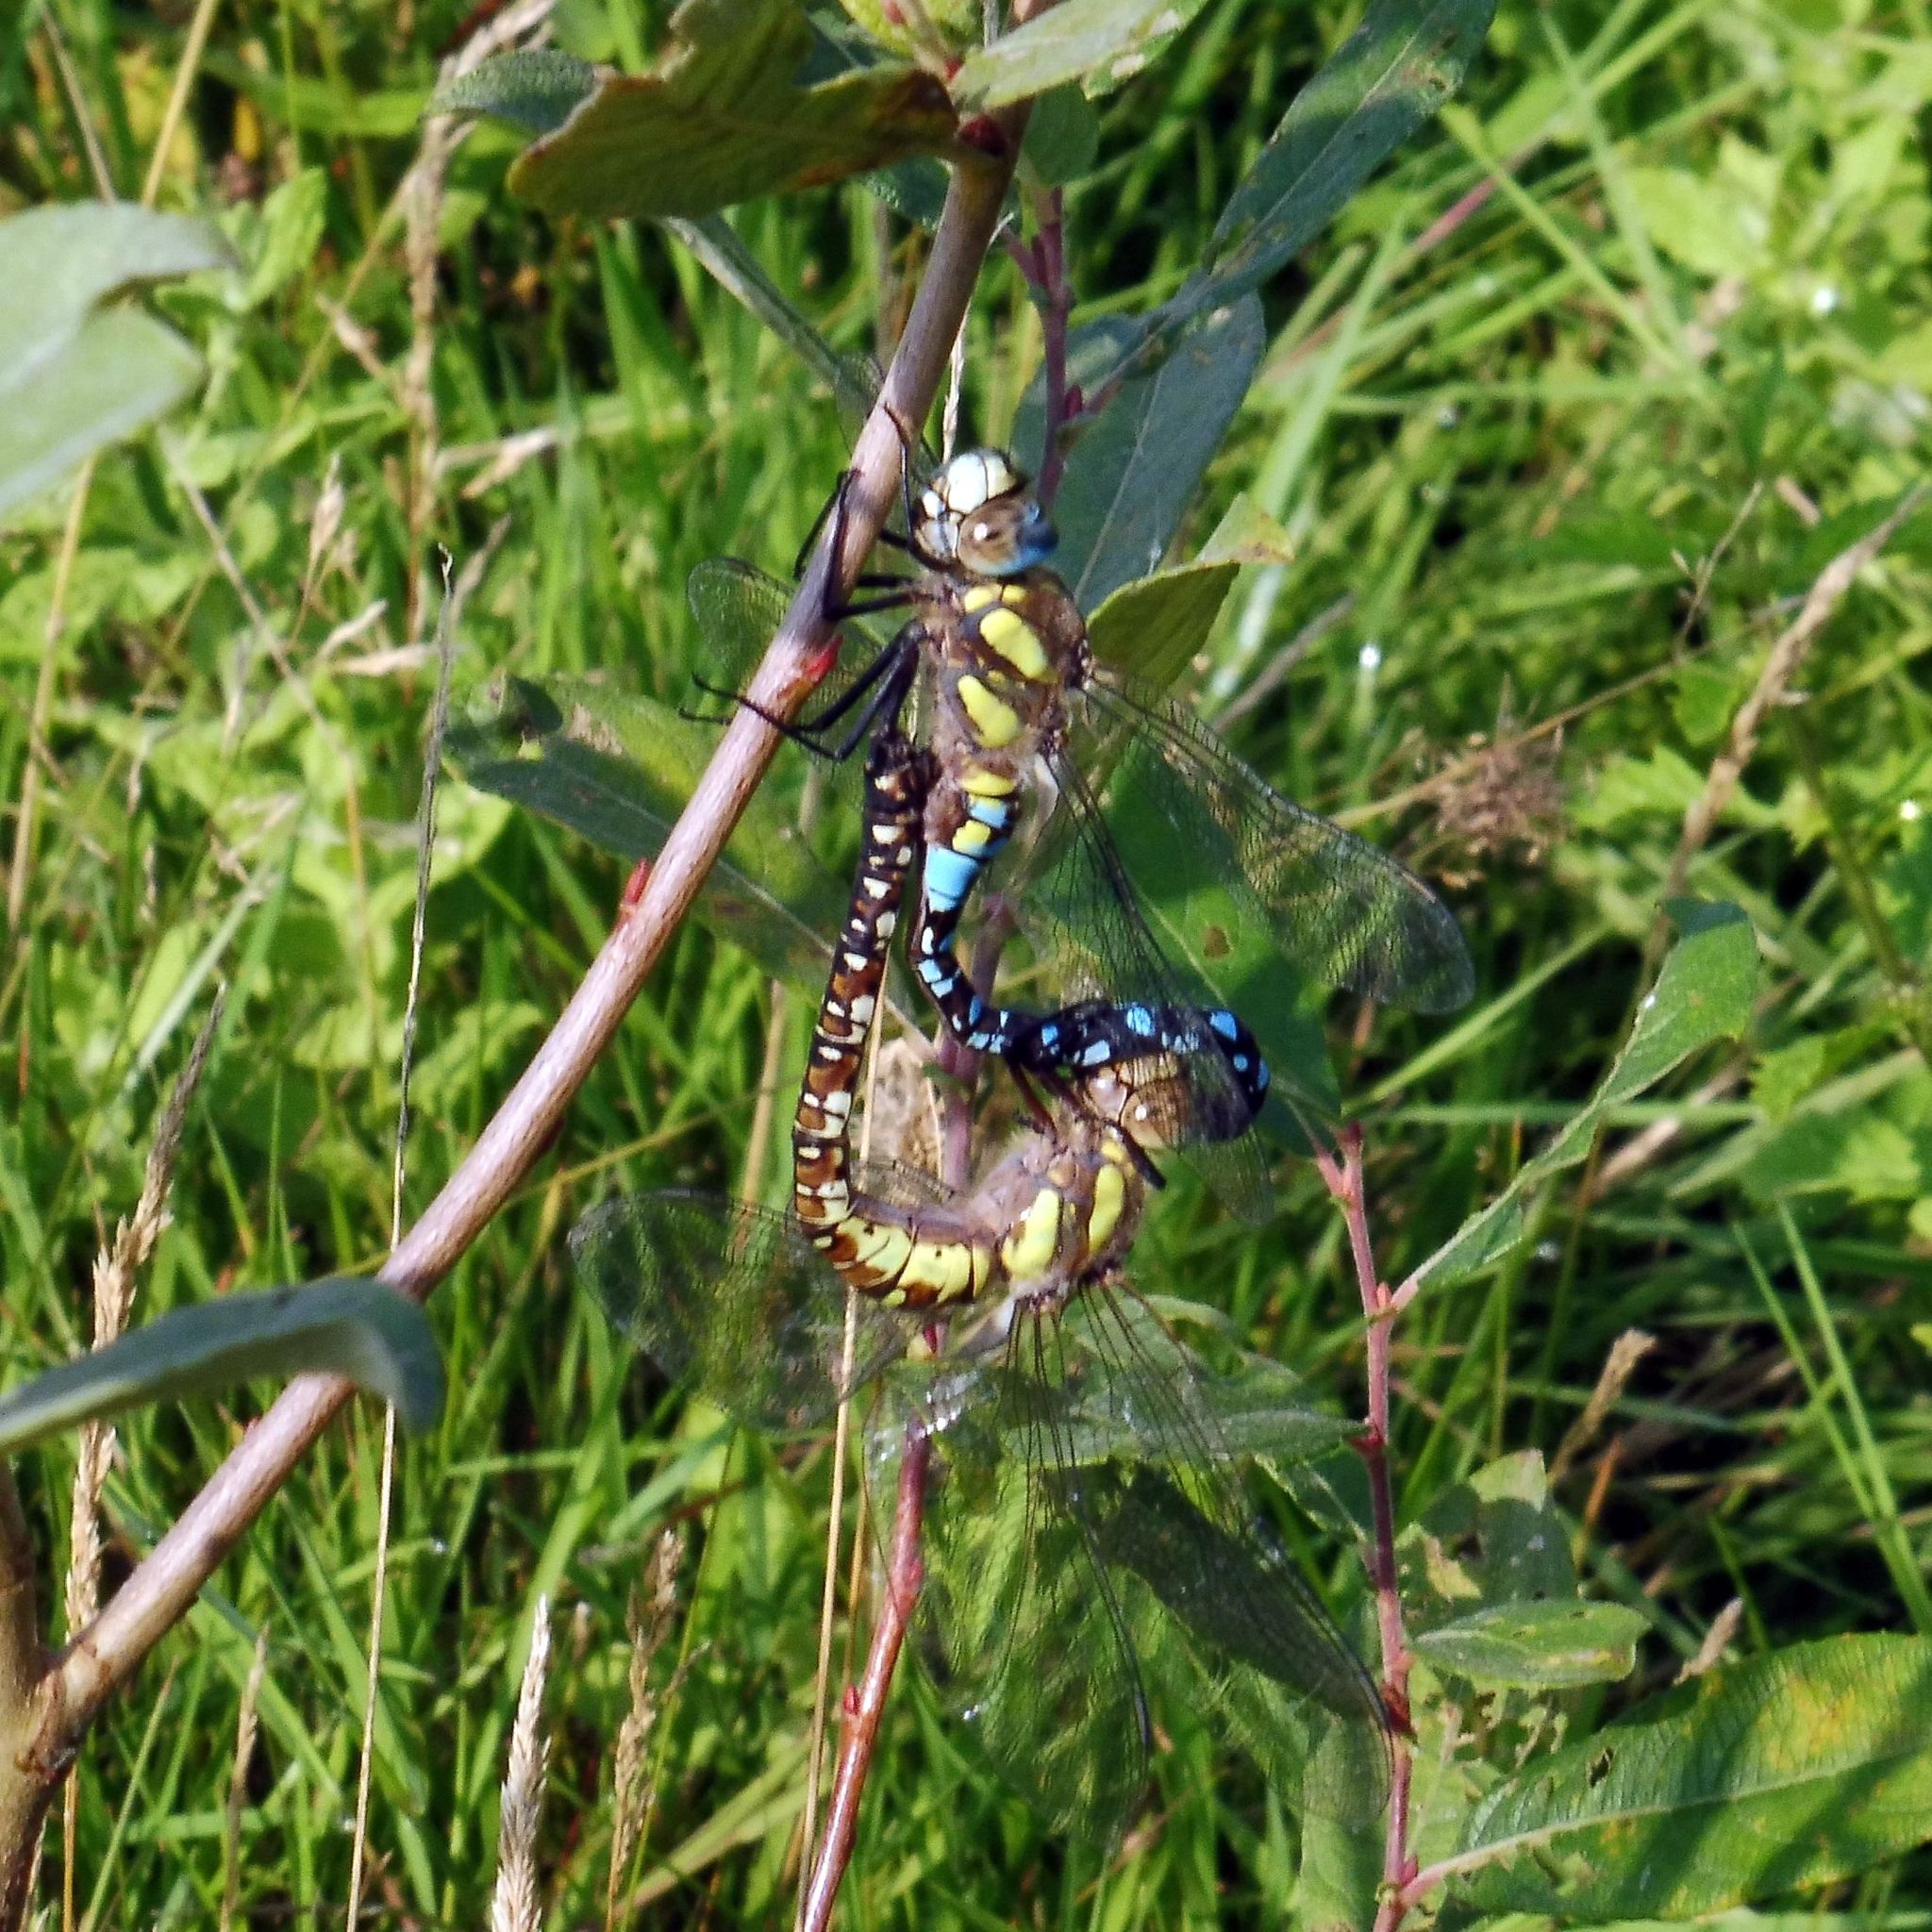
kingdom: Animalia
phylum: Arthropoda
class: Insecta
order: Odonata
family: Aeshnidae
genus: Aeshna
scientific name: Aeshna mixta
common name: Migrant hawker
